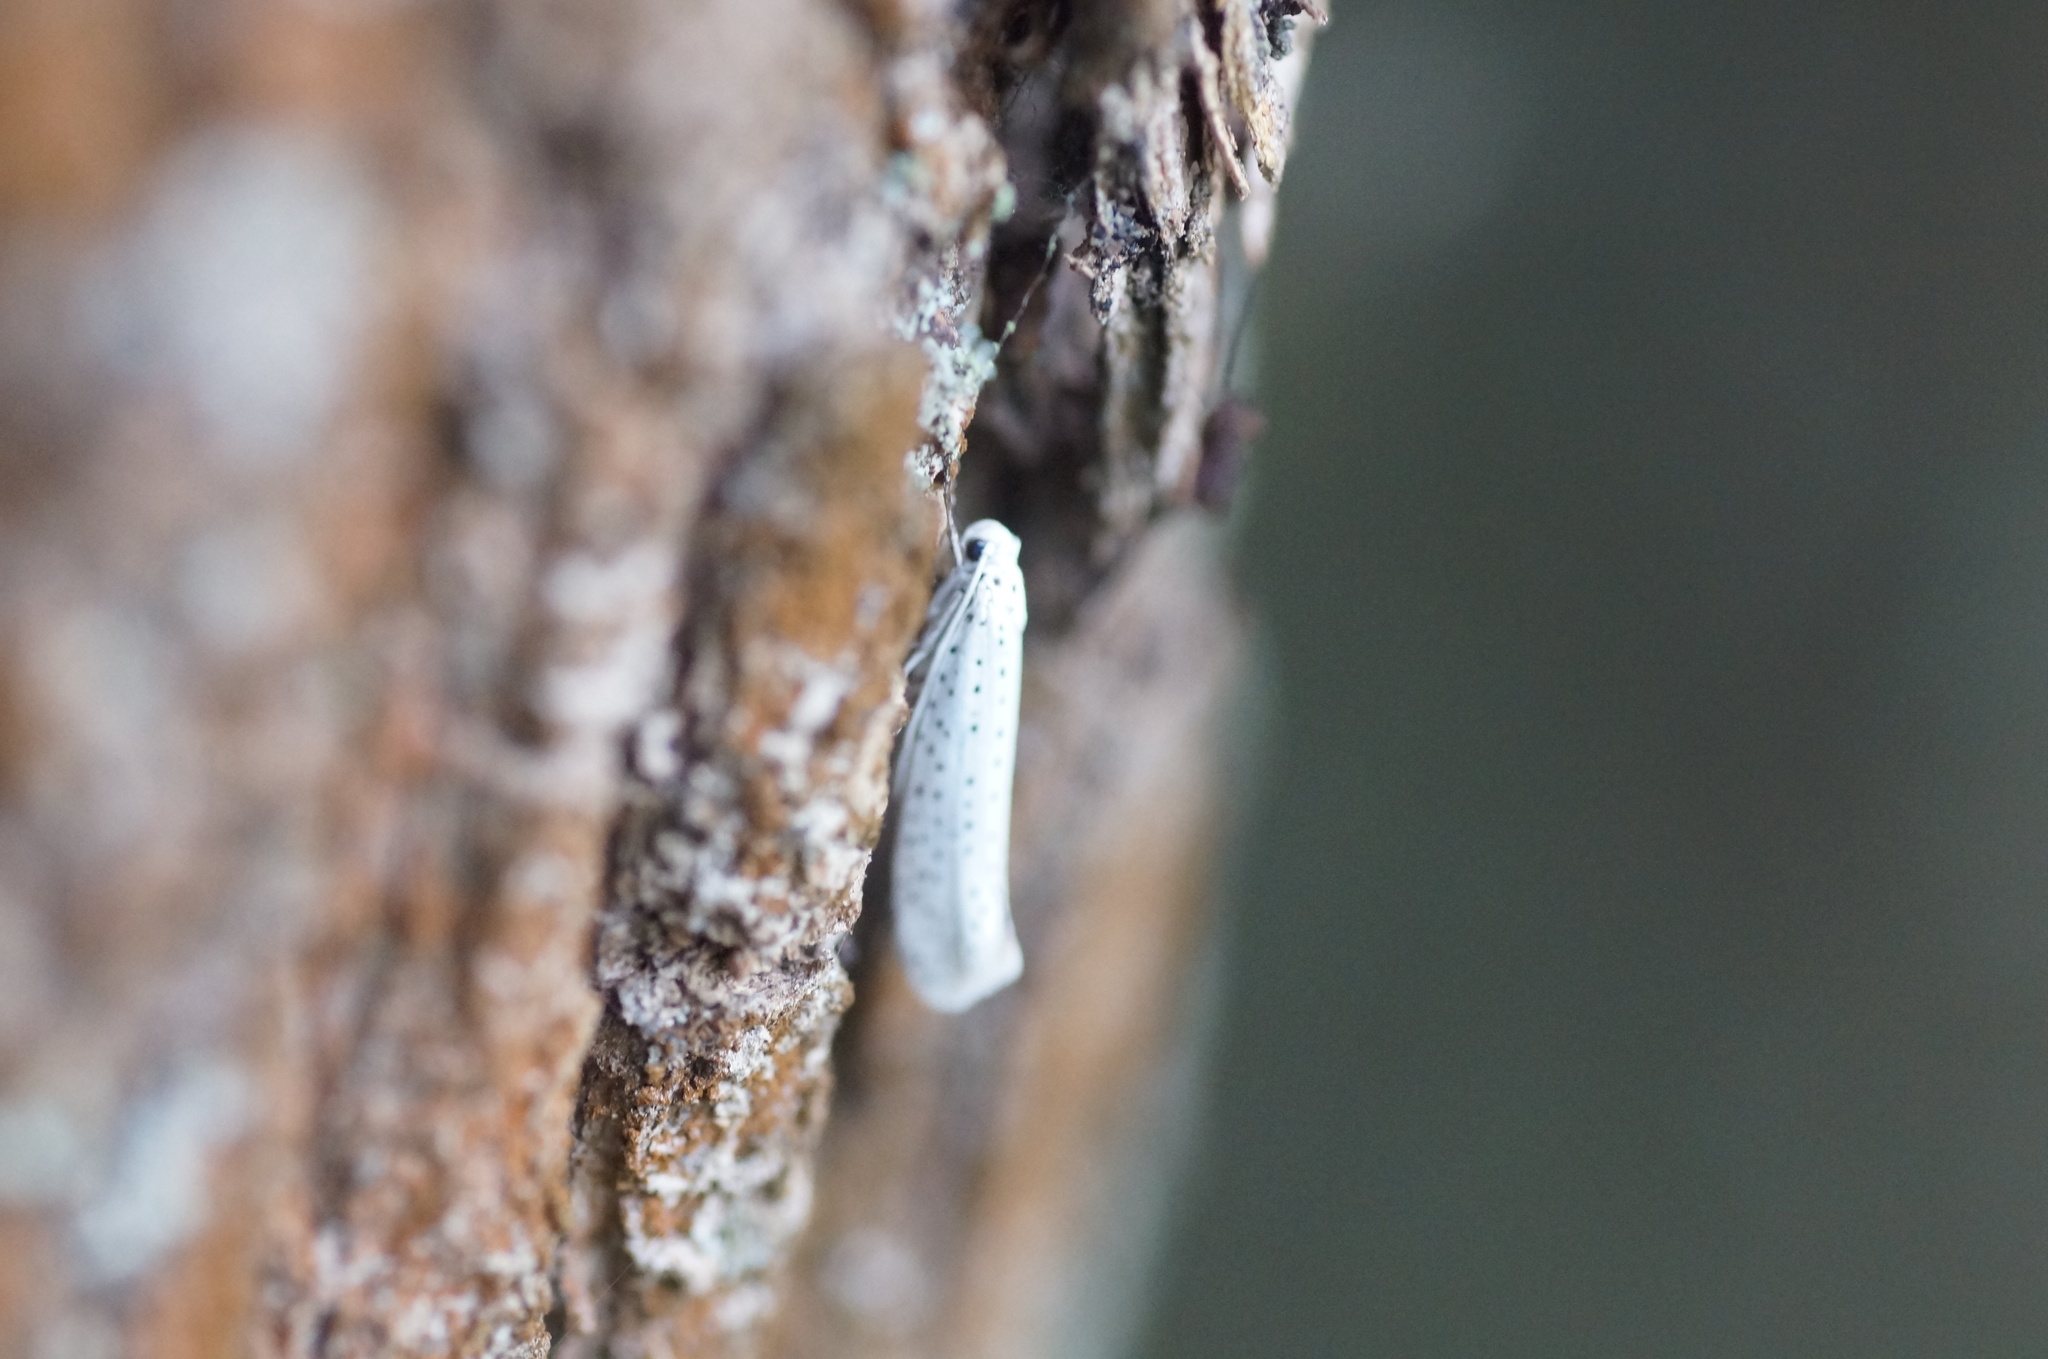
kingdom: Animalia
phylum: Arthropoda
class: Insecta
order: Lepidoptera
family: Yponomeutidae
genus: Yponomeuta
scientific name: Yponomeuta evonymella
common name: Bird-cherry ermine
